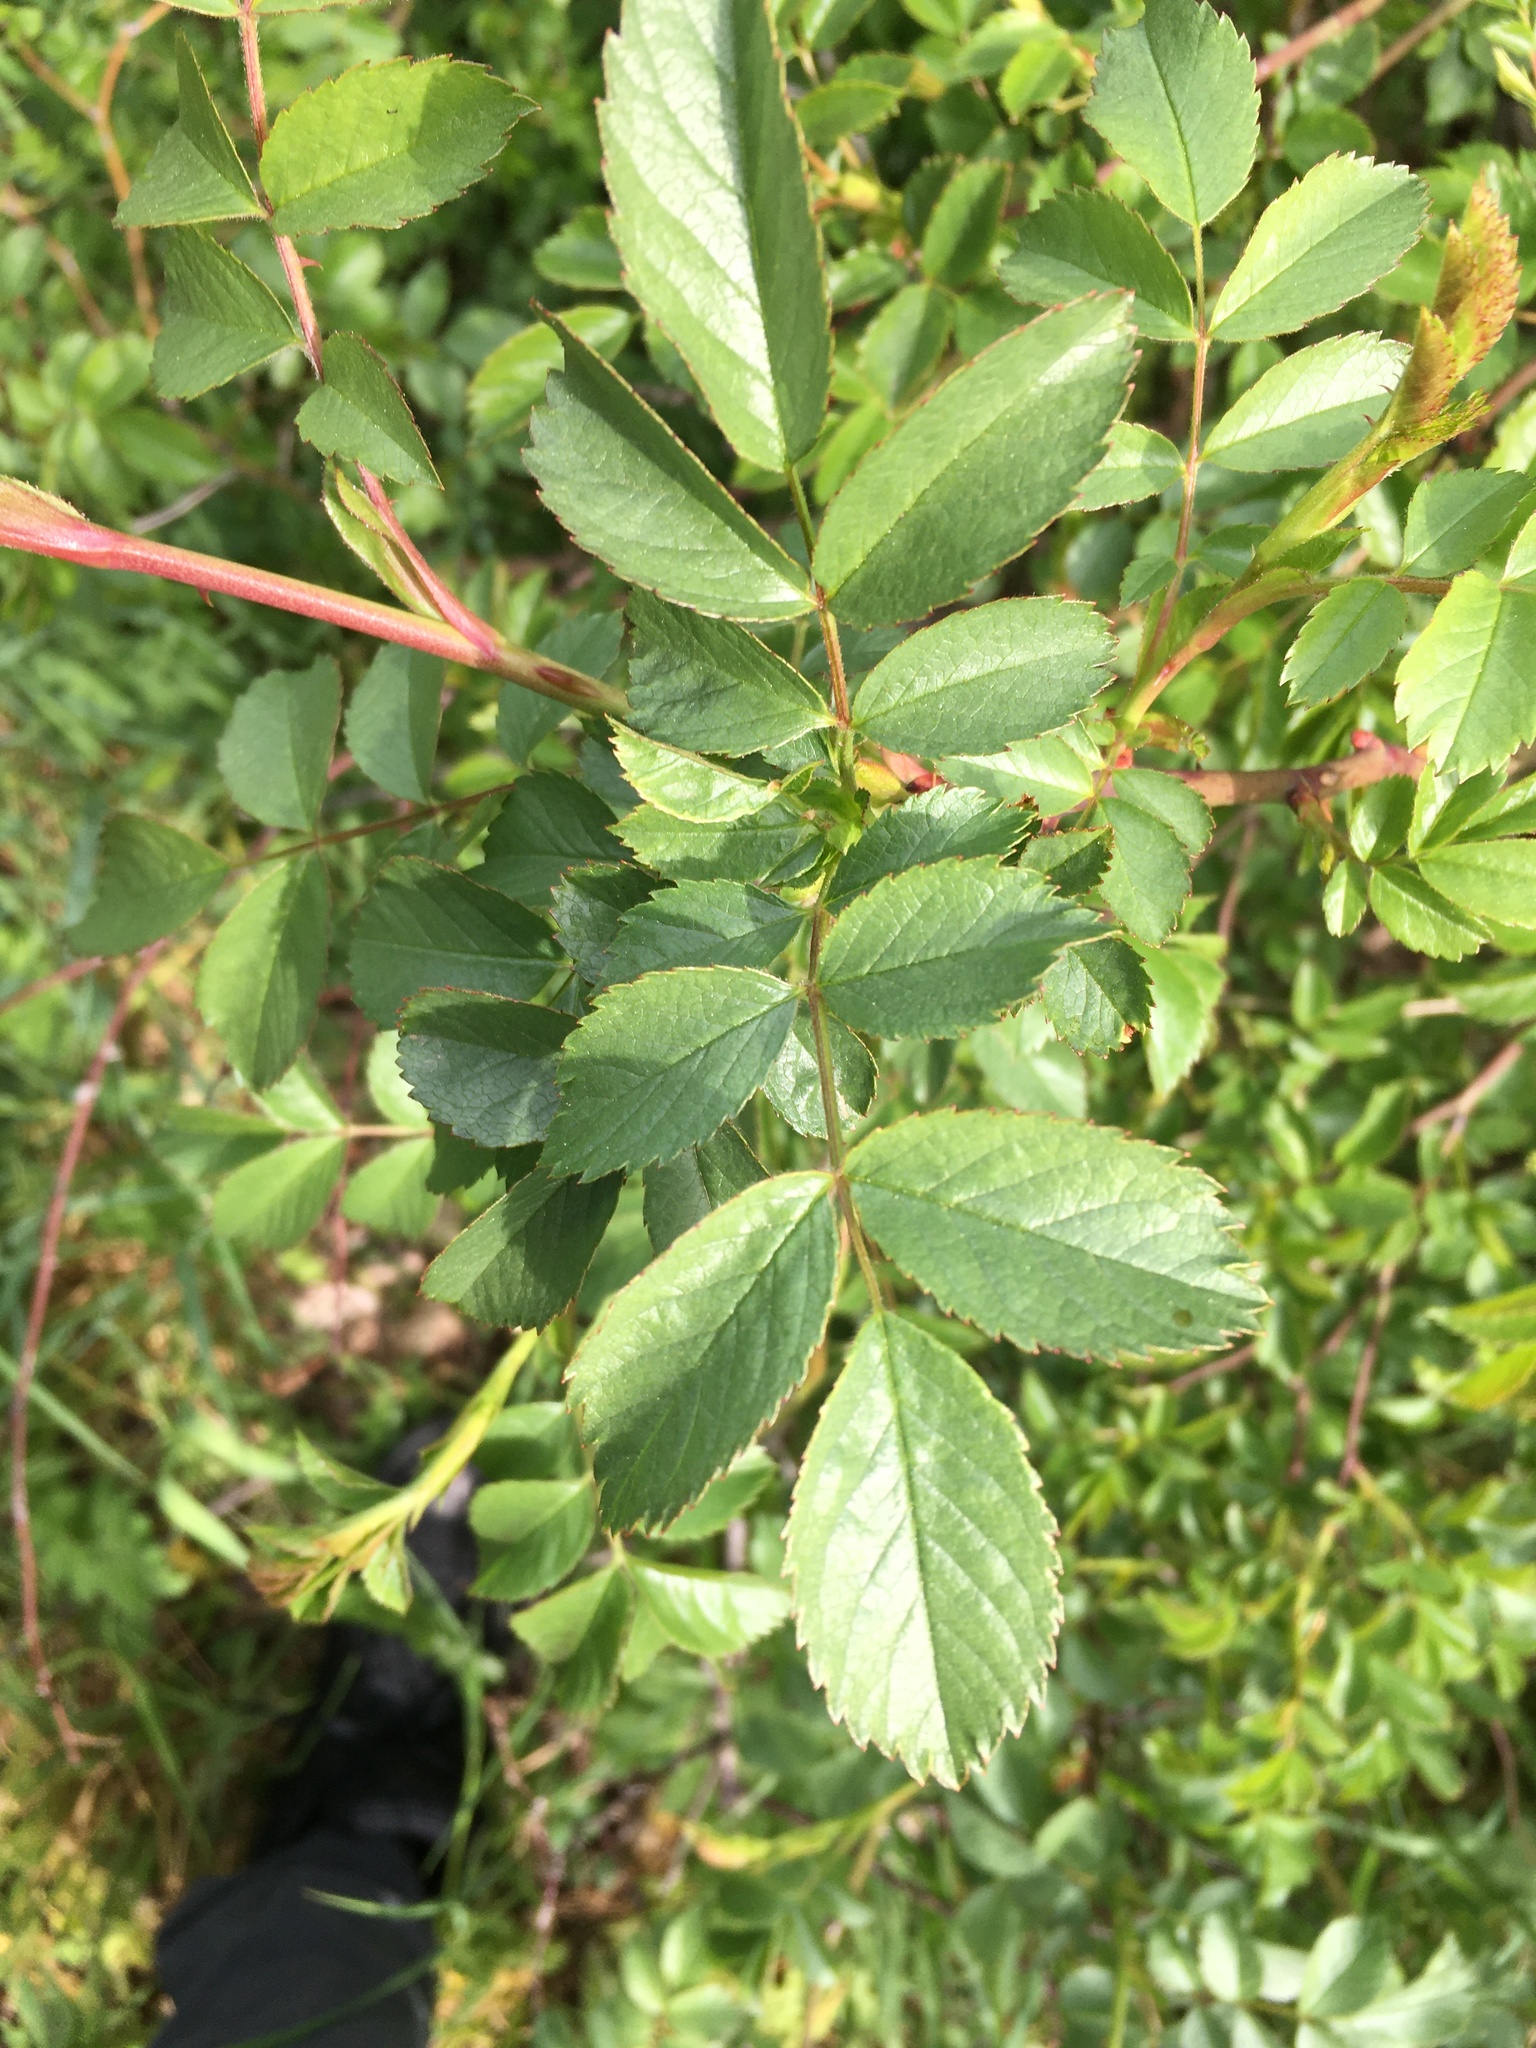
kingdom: Plantae
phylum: Tracheophyta
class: Magnoliopsida
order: Rosales
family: Rosaceae
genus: Rosa
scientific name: Rosa canina
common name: Dog rose
